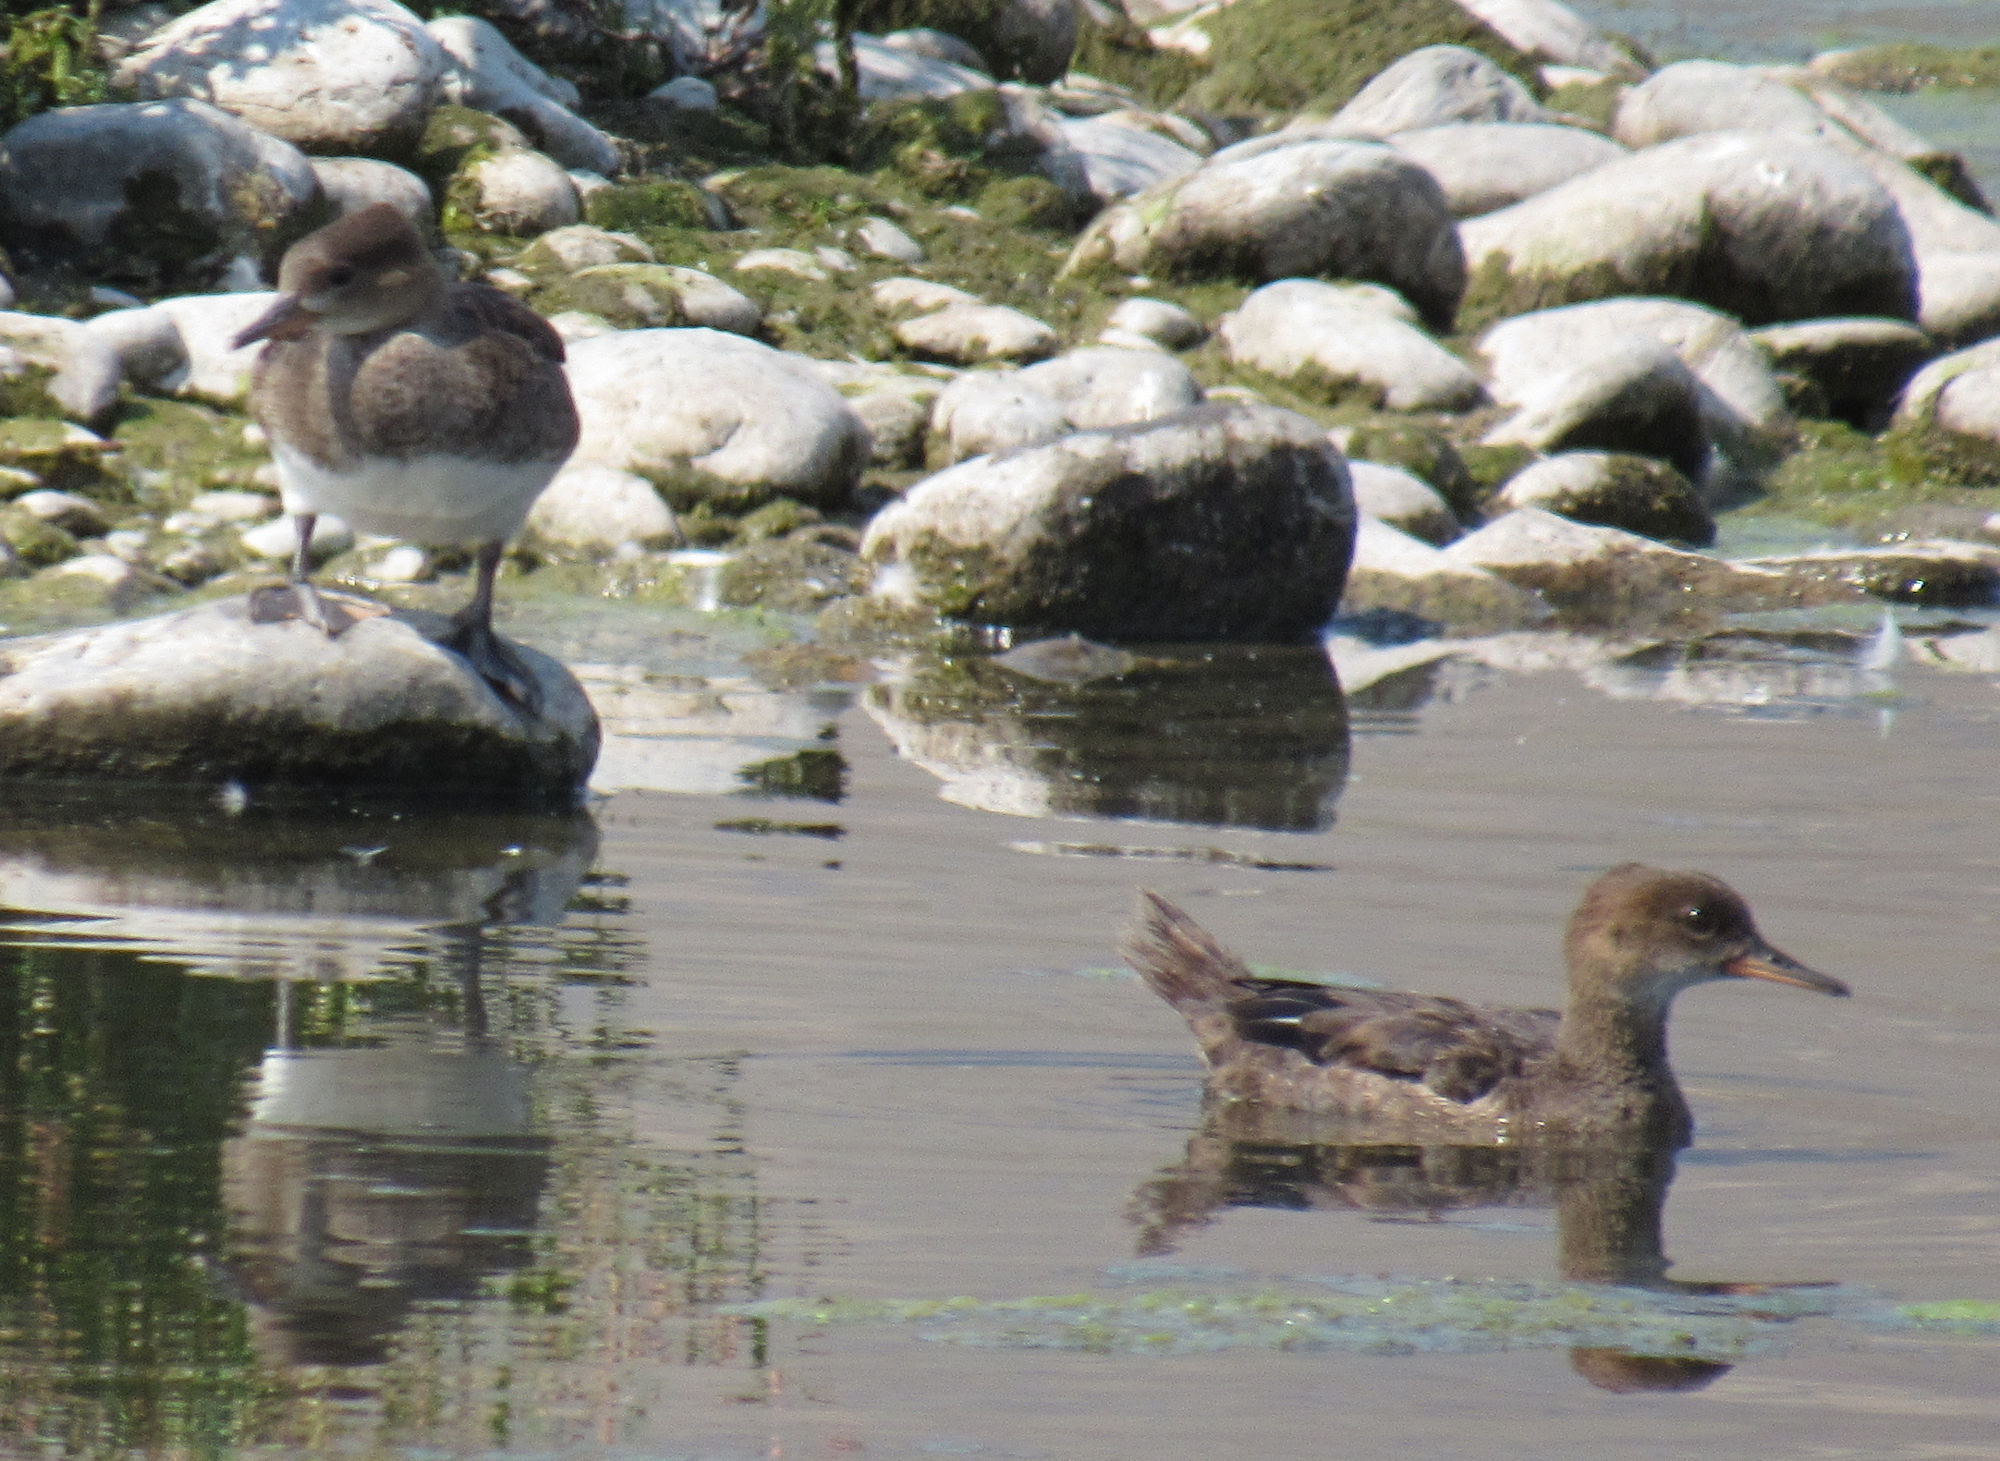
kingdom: Animalia
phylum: Chordata
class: Aves
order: Anseriformes
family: Anatidae
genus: Lophodytes
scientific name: Lophodytes cucullatus
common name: Hooded merganser
